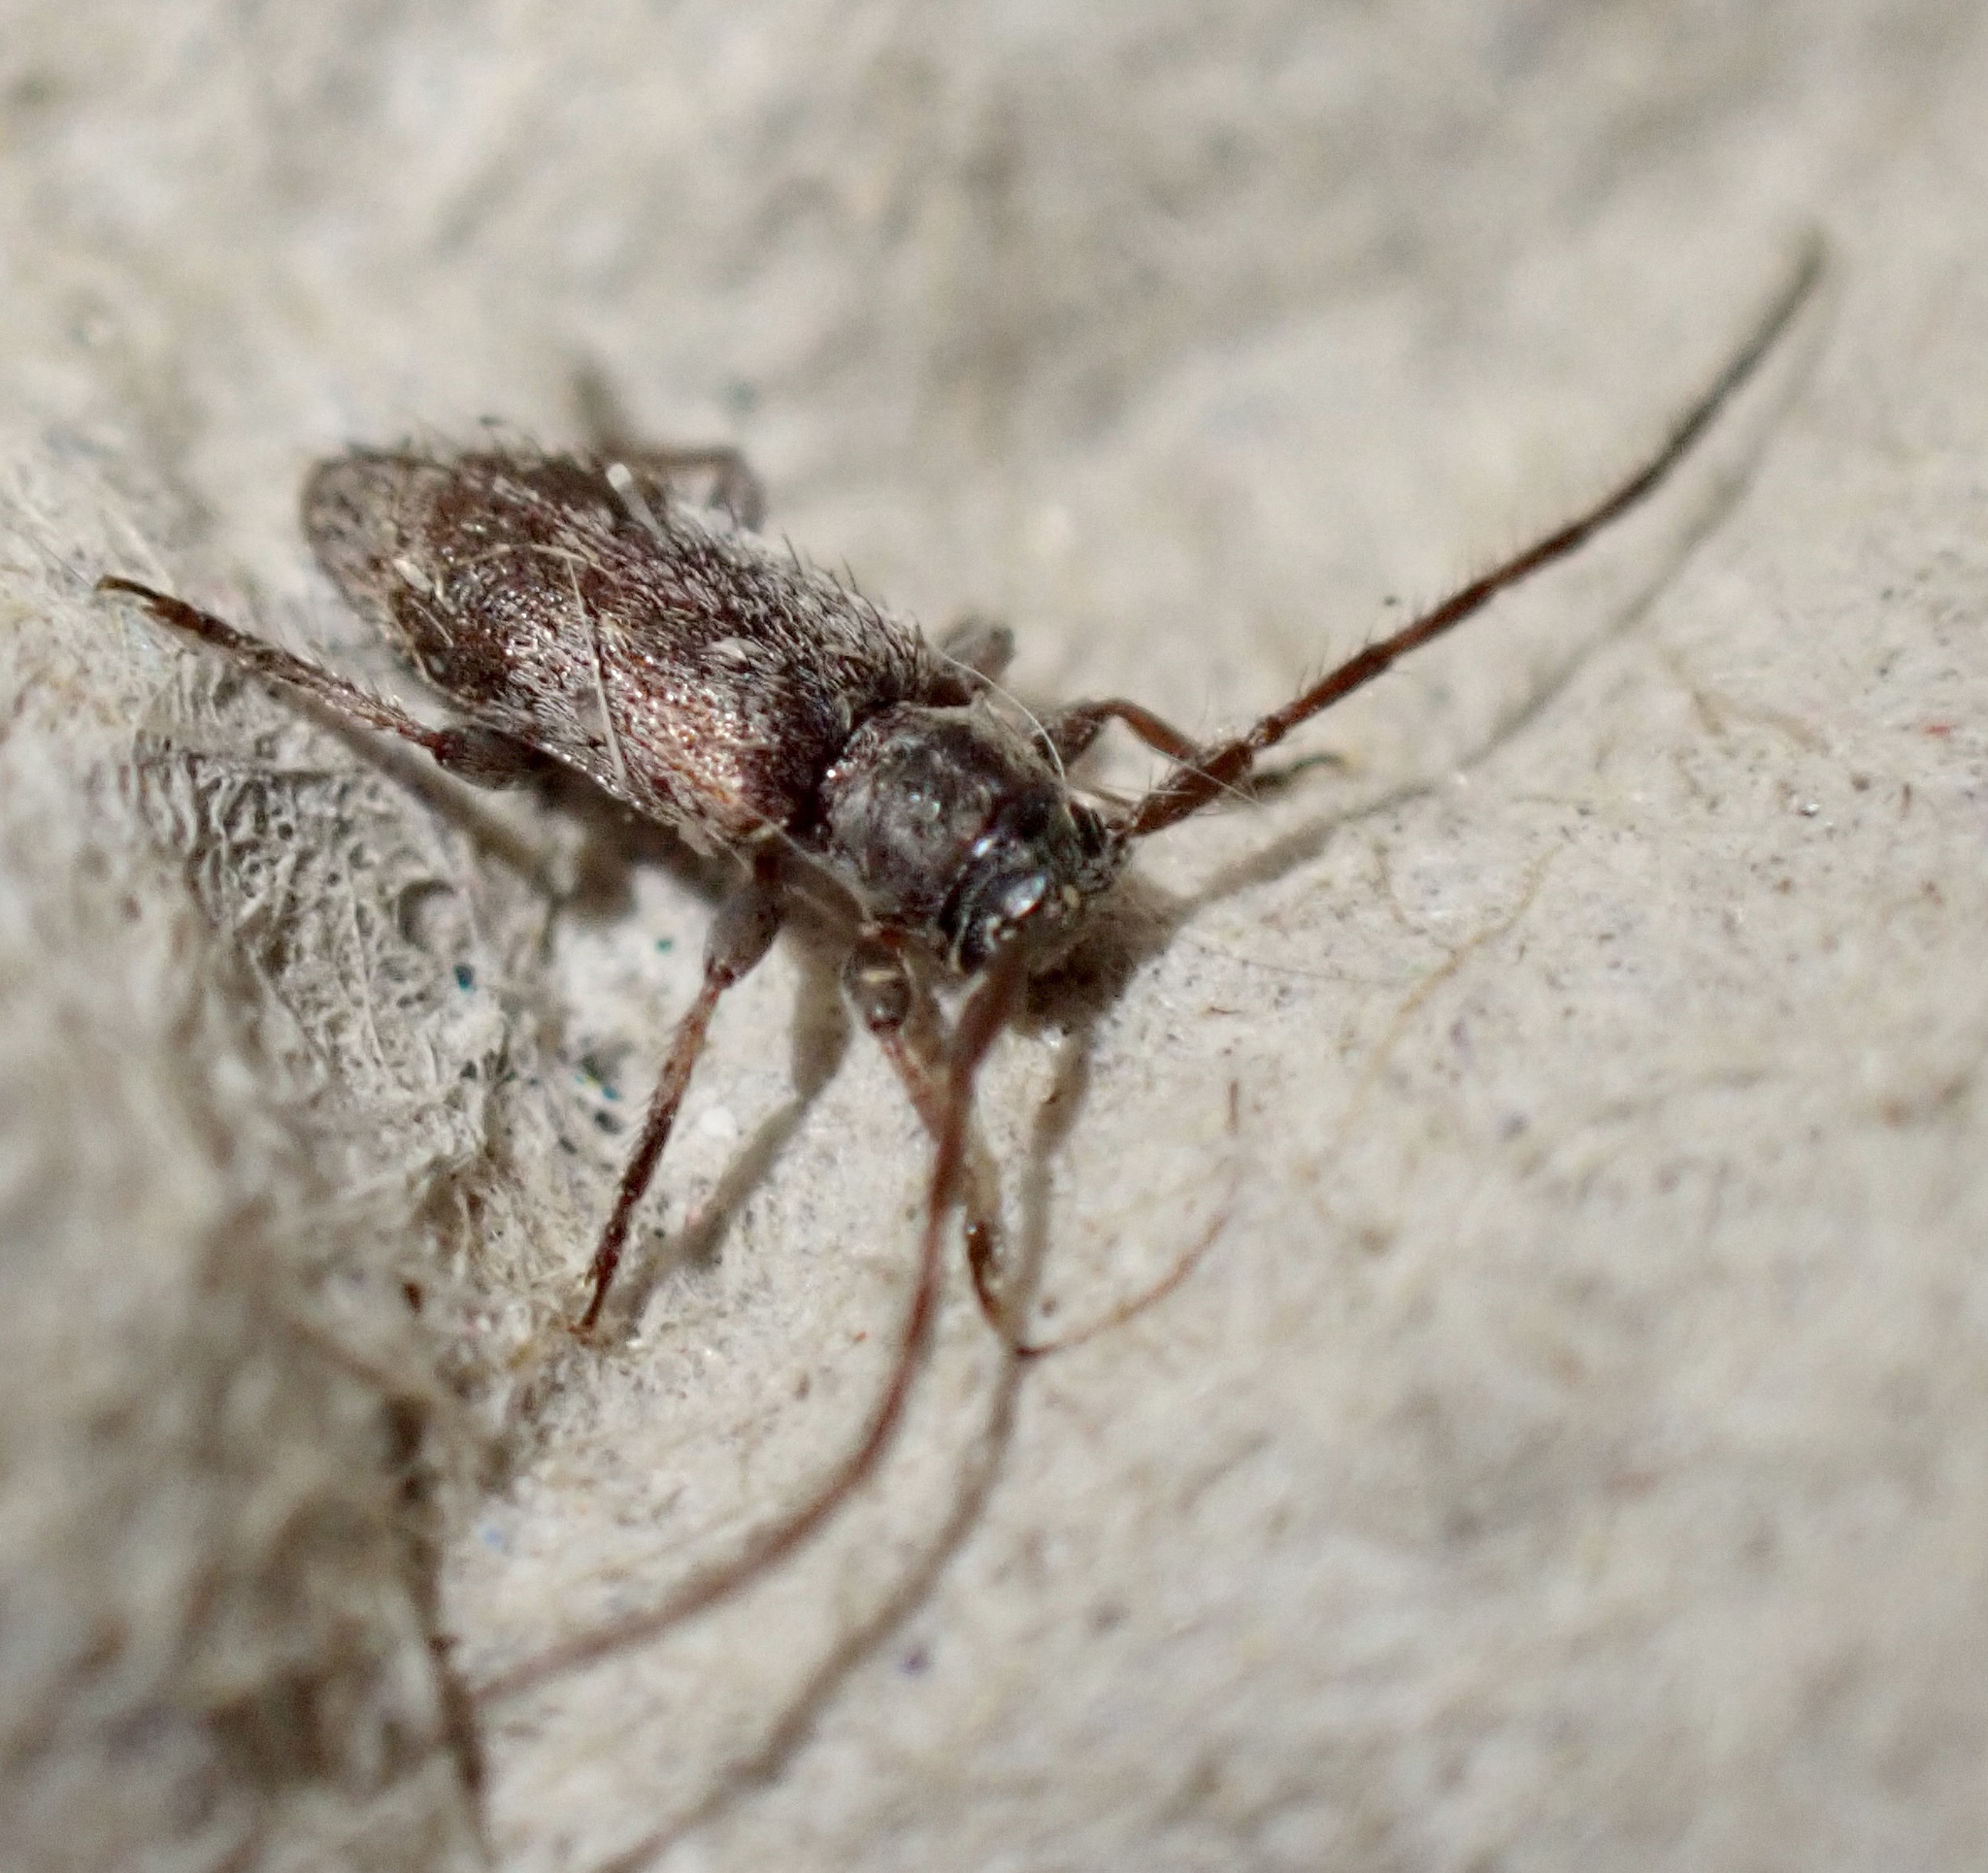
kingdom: Animalia
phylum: Arthropoda
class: Insecta
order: Coleoptera
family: Cerambycidae
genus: Exocentrus
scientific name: Exocentrus lusitanus
